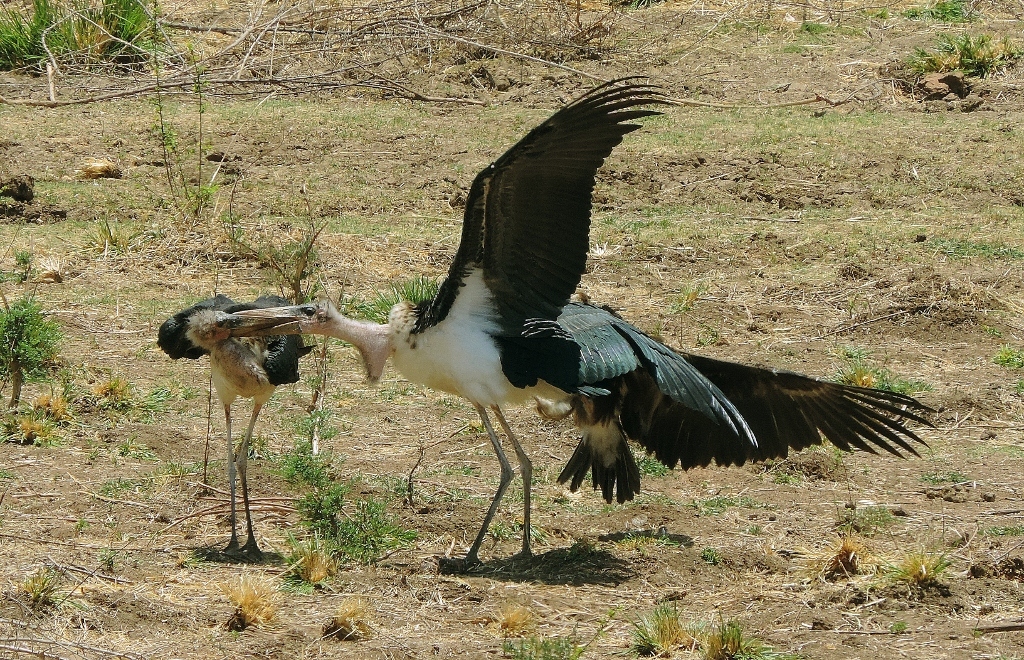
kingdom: Animalia
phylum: Chordata
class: Aves
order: Ciconiiformes
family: Ciconiidae
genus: Leptoptilos
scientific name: Leptoptilos crumenifer
